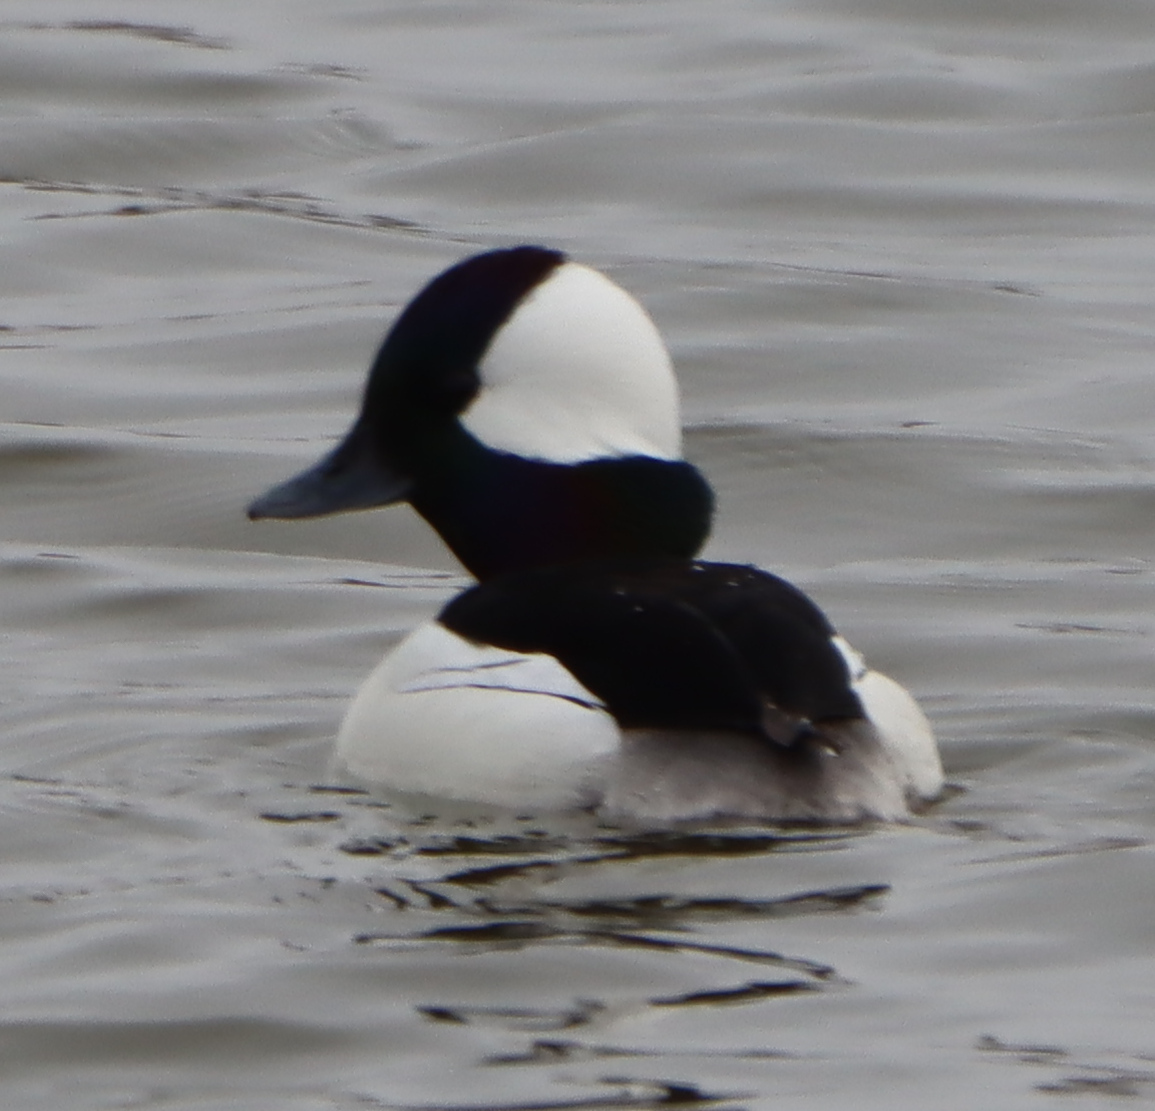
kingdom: Animalia
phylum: Chordata
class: Aves
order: Anseriformes
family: Anatidae
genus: Bucephala
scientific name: Bucephala albeola
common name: Bufflehead
